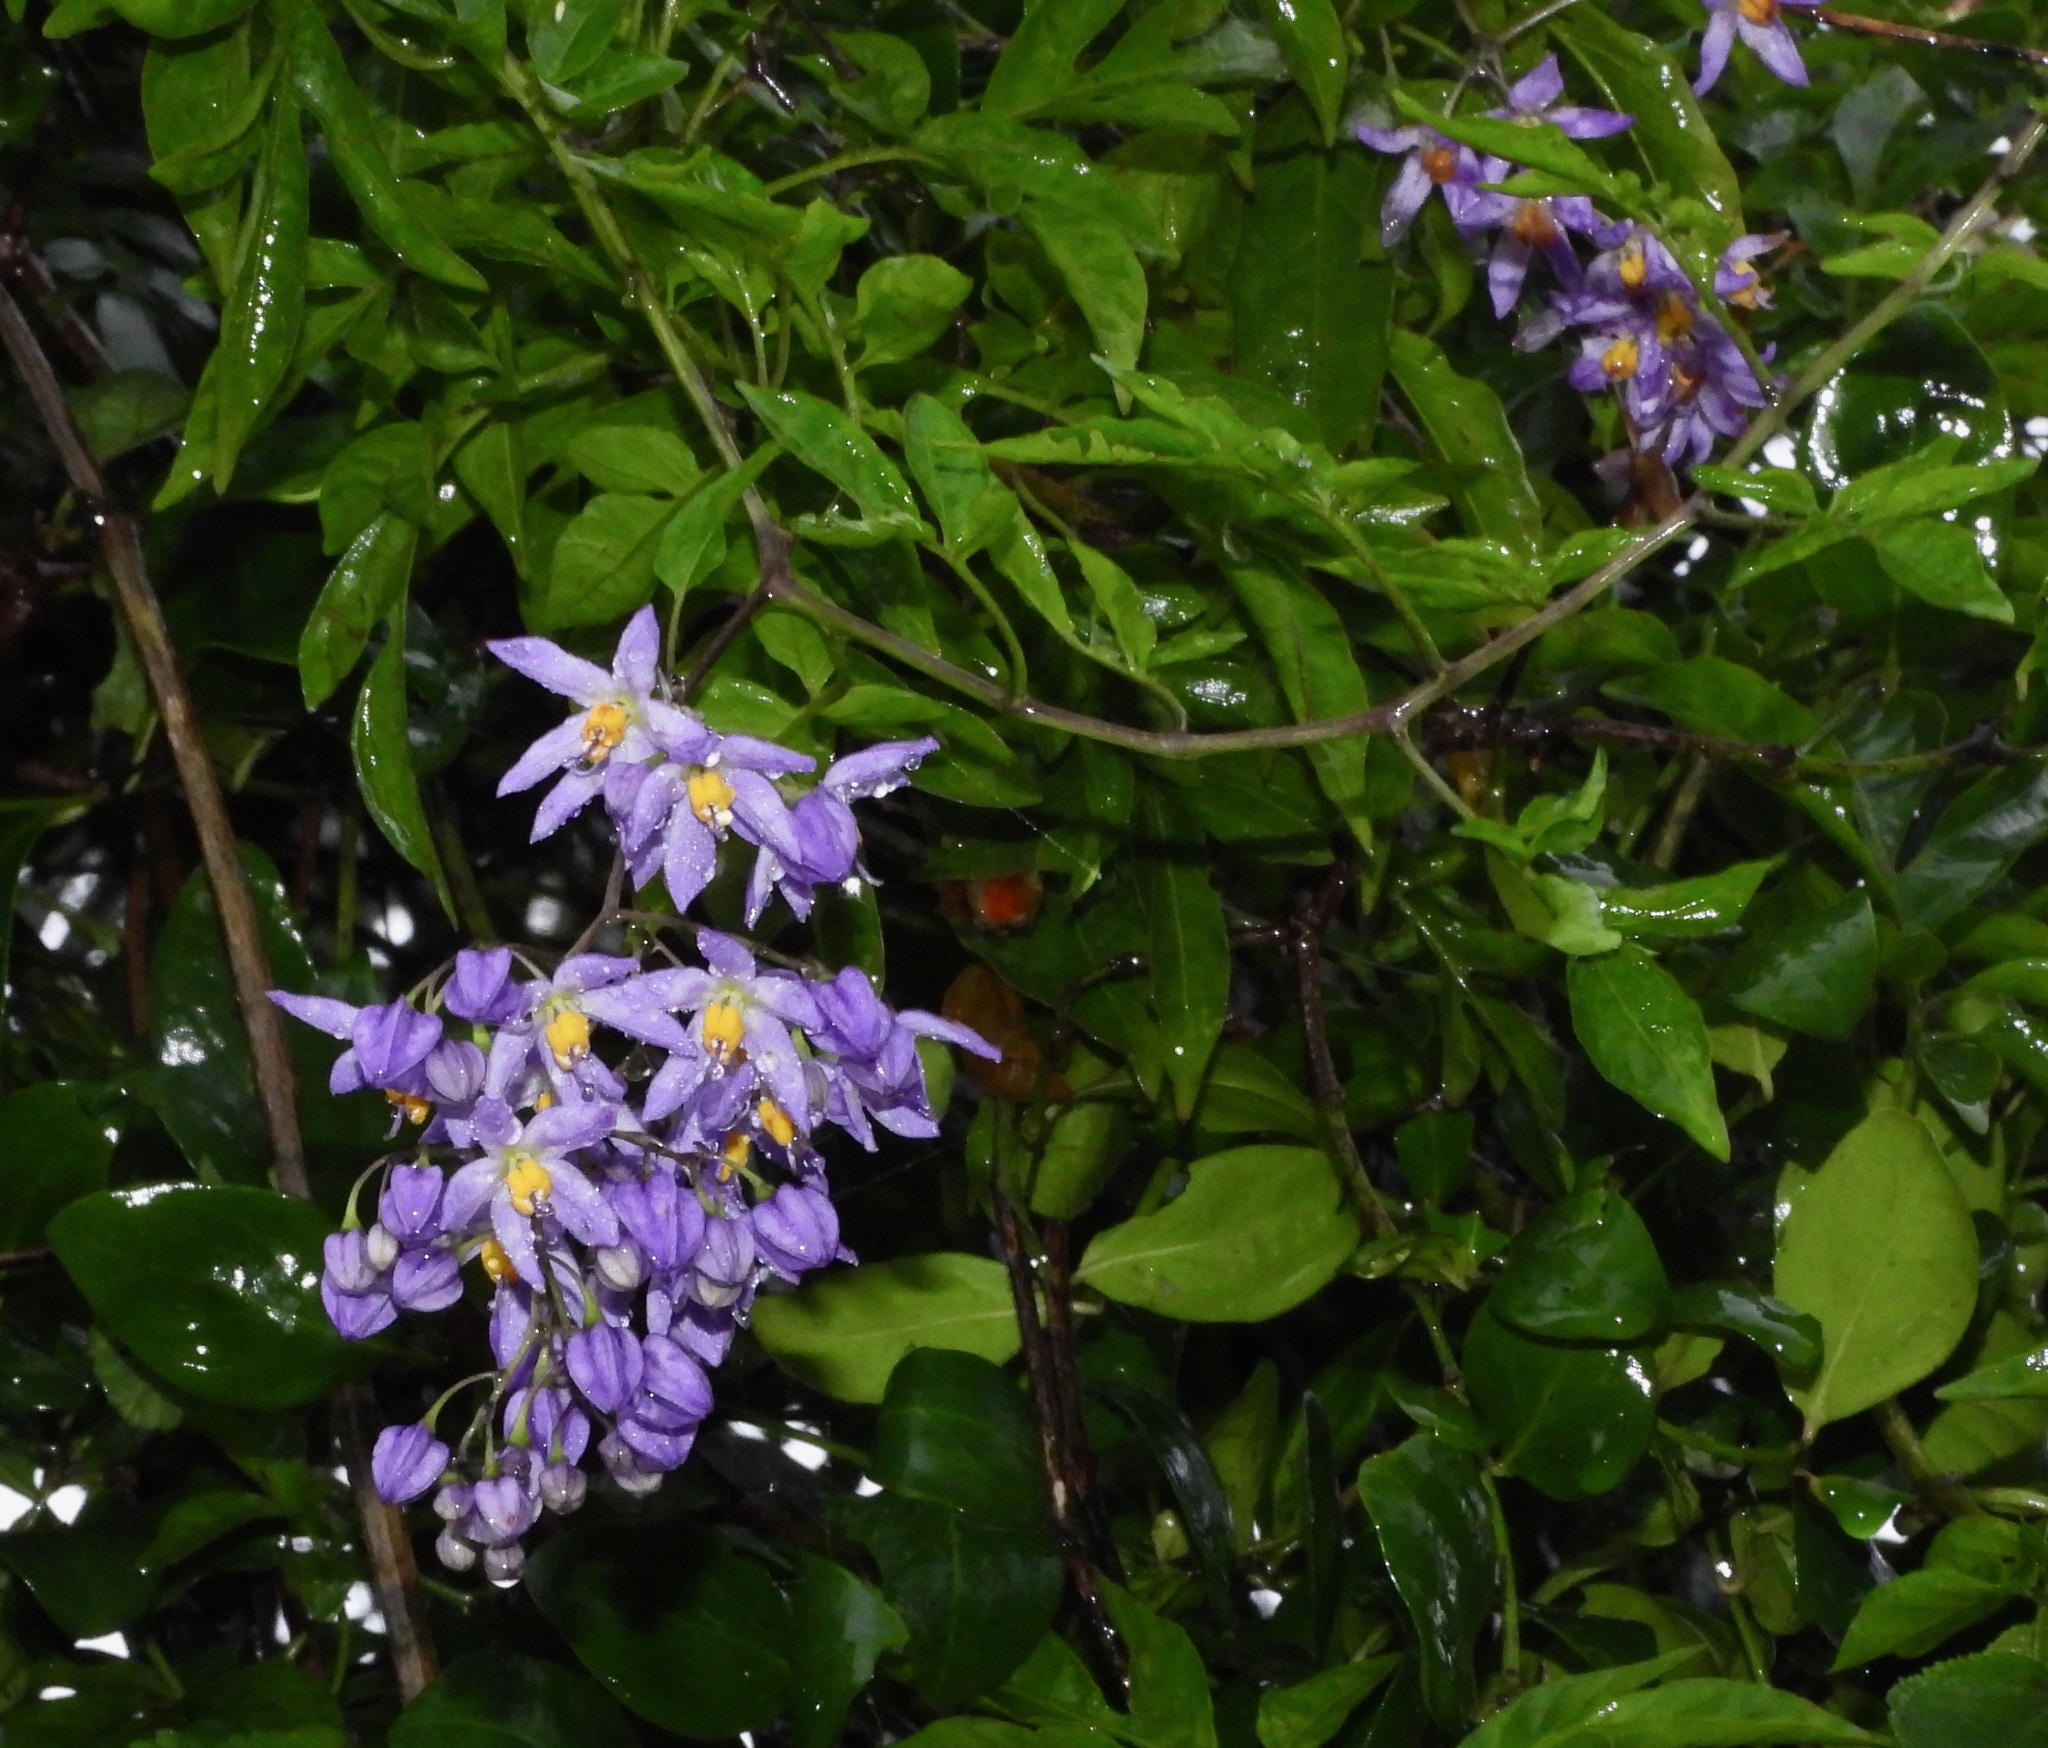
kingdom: Plantae
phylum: Tracheophyta
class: Magnoliopsida
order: Solanales
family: Solanaceae
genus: Solanum
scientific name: Solanum seaforthianum
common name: Brazilian nightshade
